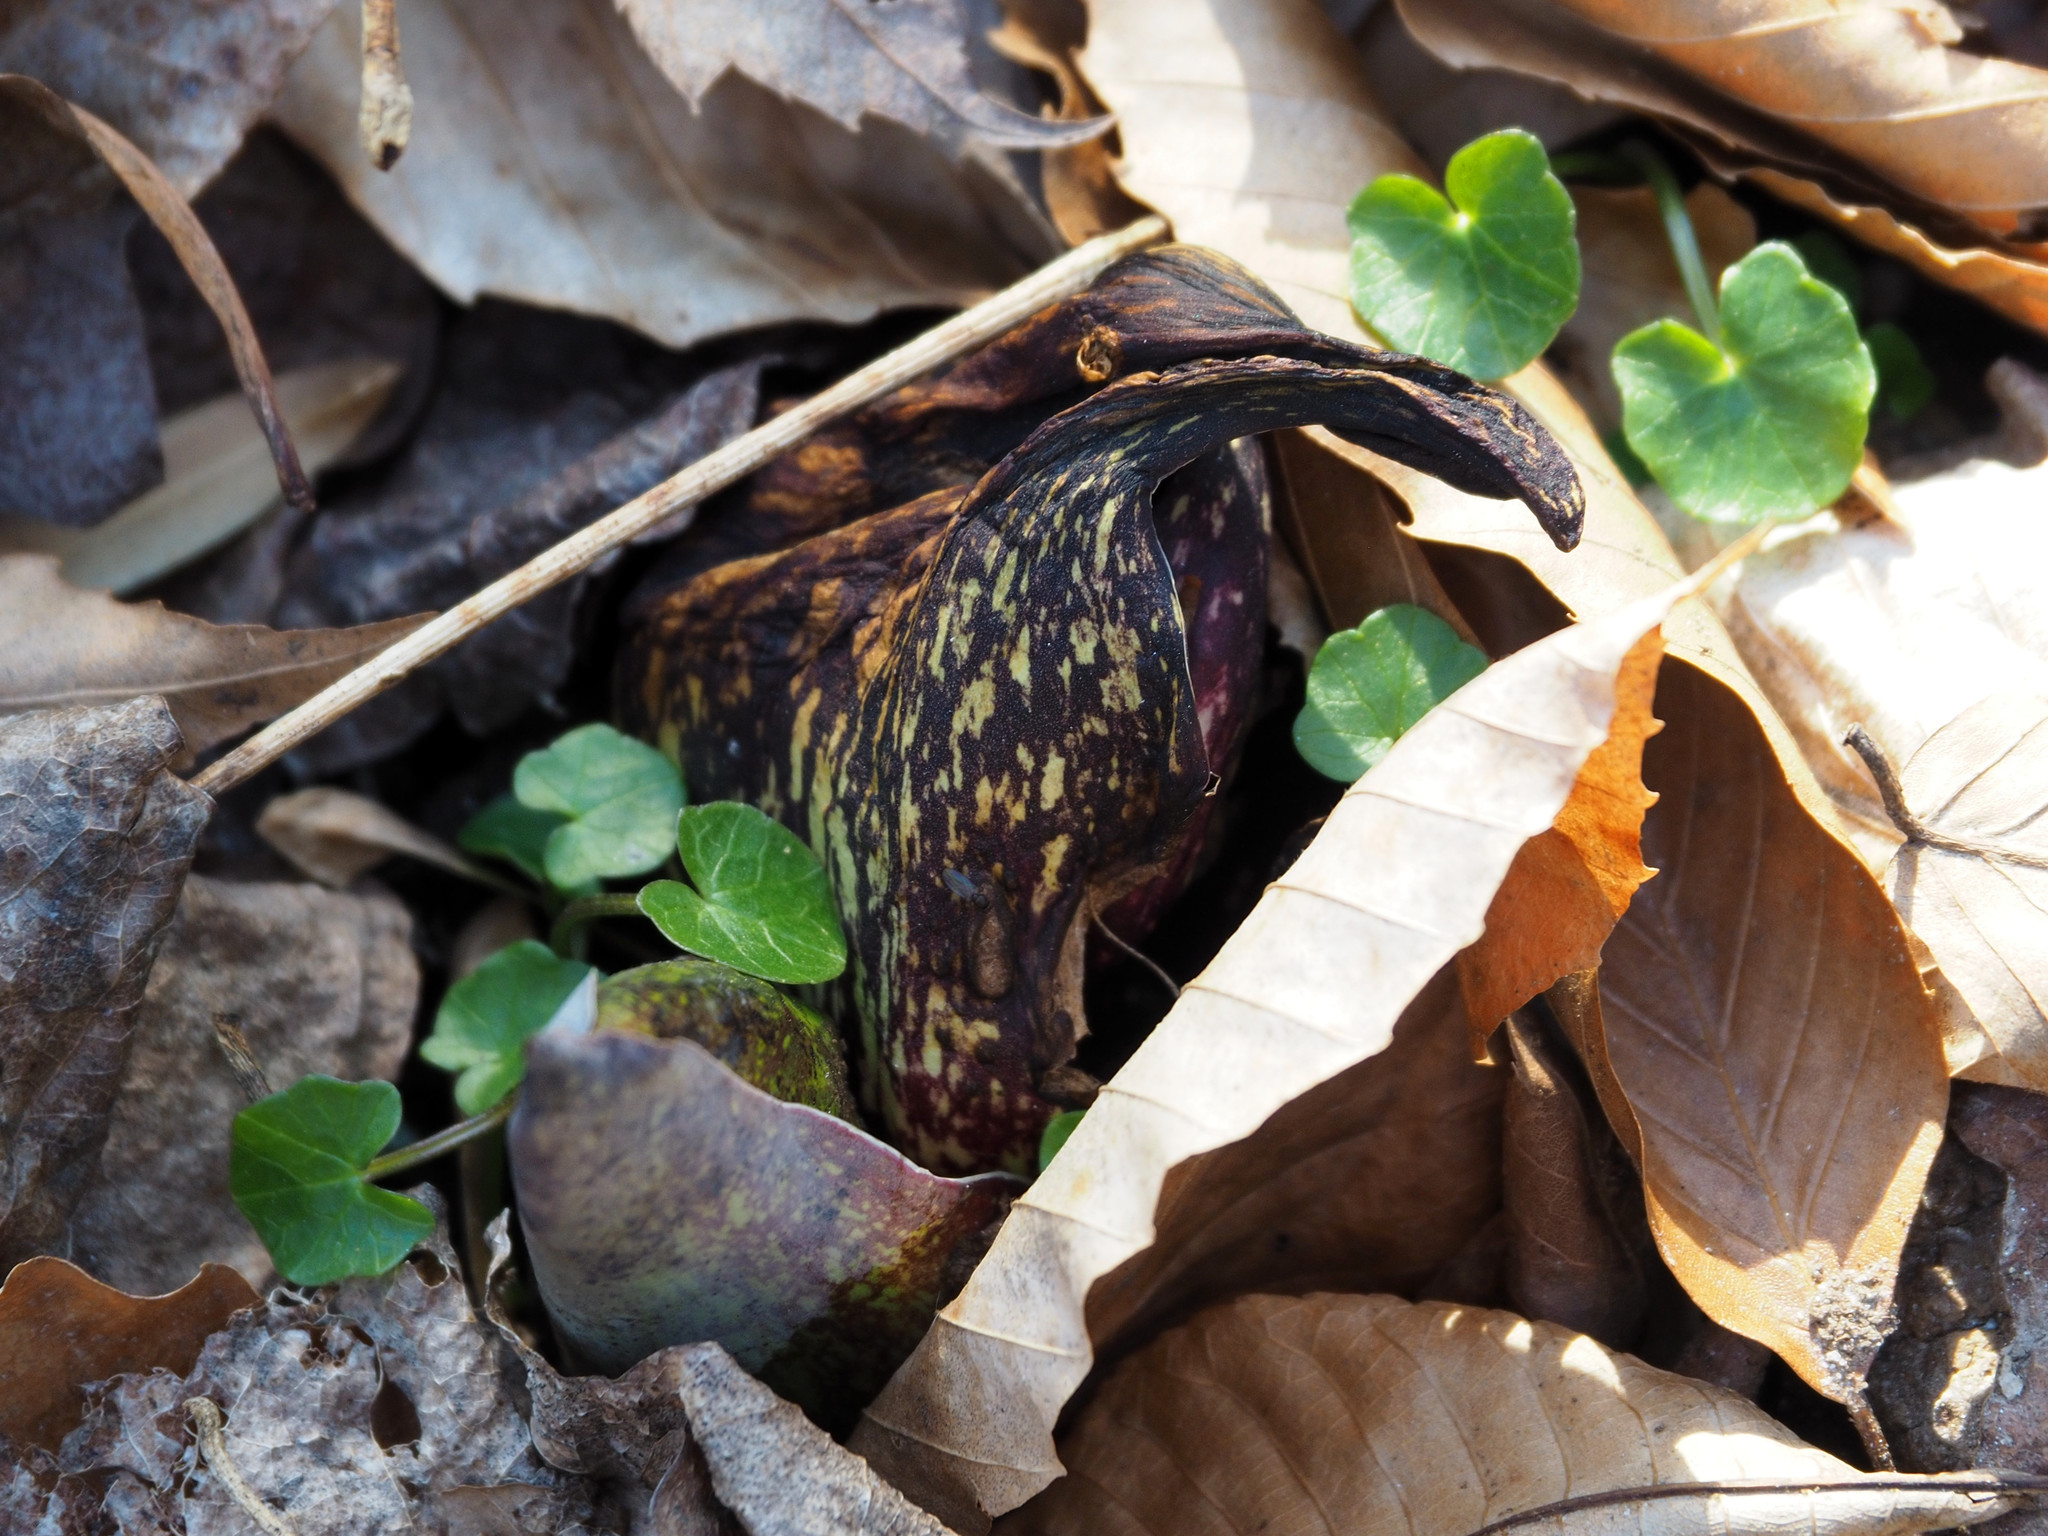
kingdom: Plantae
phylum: Tracheophyta
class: Liliopsida
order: Alismatales
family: Araceae
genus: Symplocarpus
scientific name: Symplocarpus foetidus
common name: Eastern skunk cabbage
